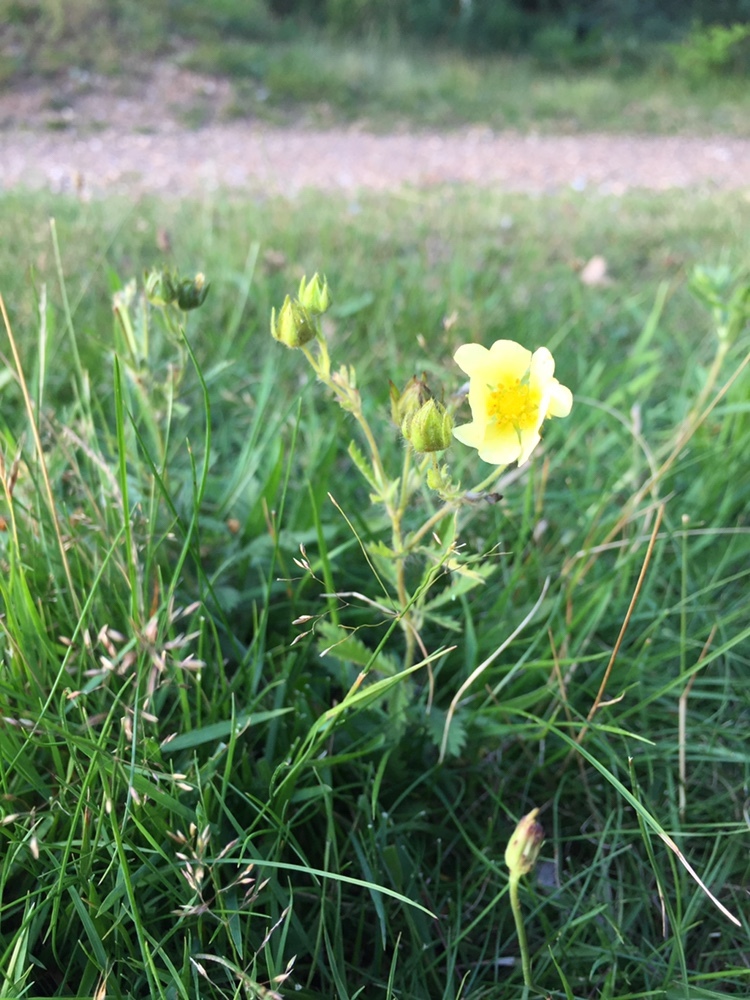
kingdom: Plantae
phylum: Tracheophyta
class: Magnoliopsida
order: Rosales
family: Rosaceae
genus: Potentilla
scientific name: Potentilla recta
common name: Sulphur cinquefoil
